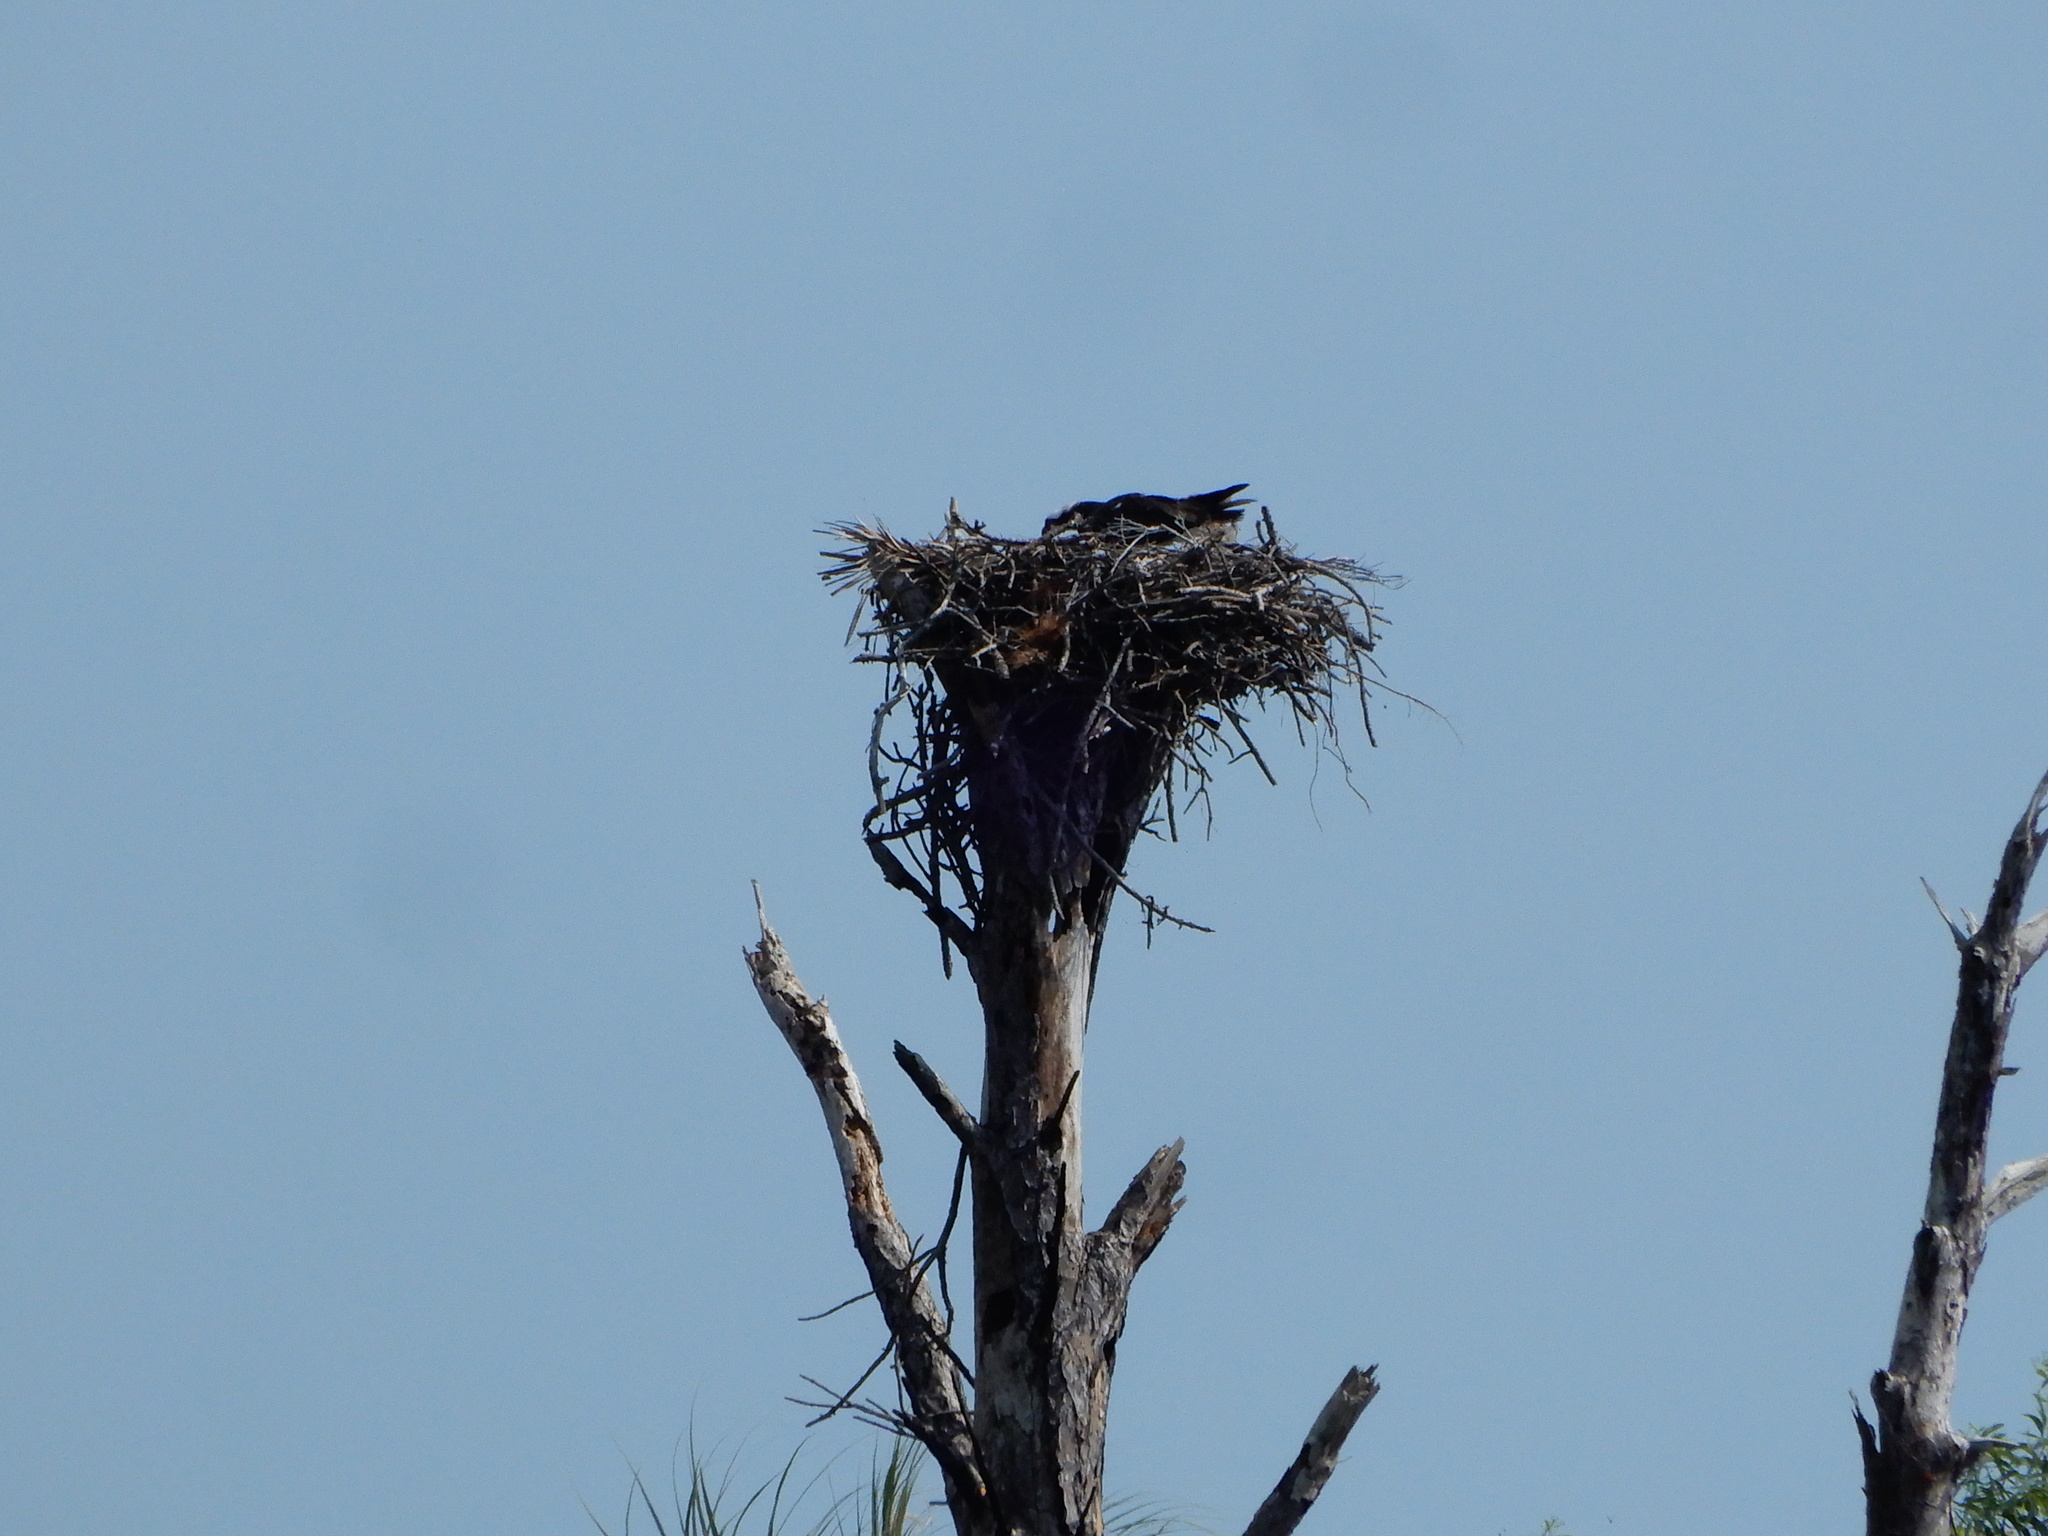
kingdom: Animalia
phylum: Chordata
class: Aves
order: Accipitriformes
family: Pandionidae
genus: Pandion
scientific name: Pandion haliaetus
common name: Osprey
